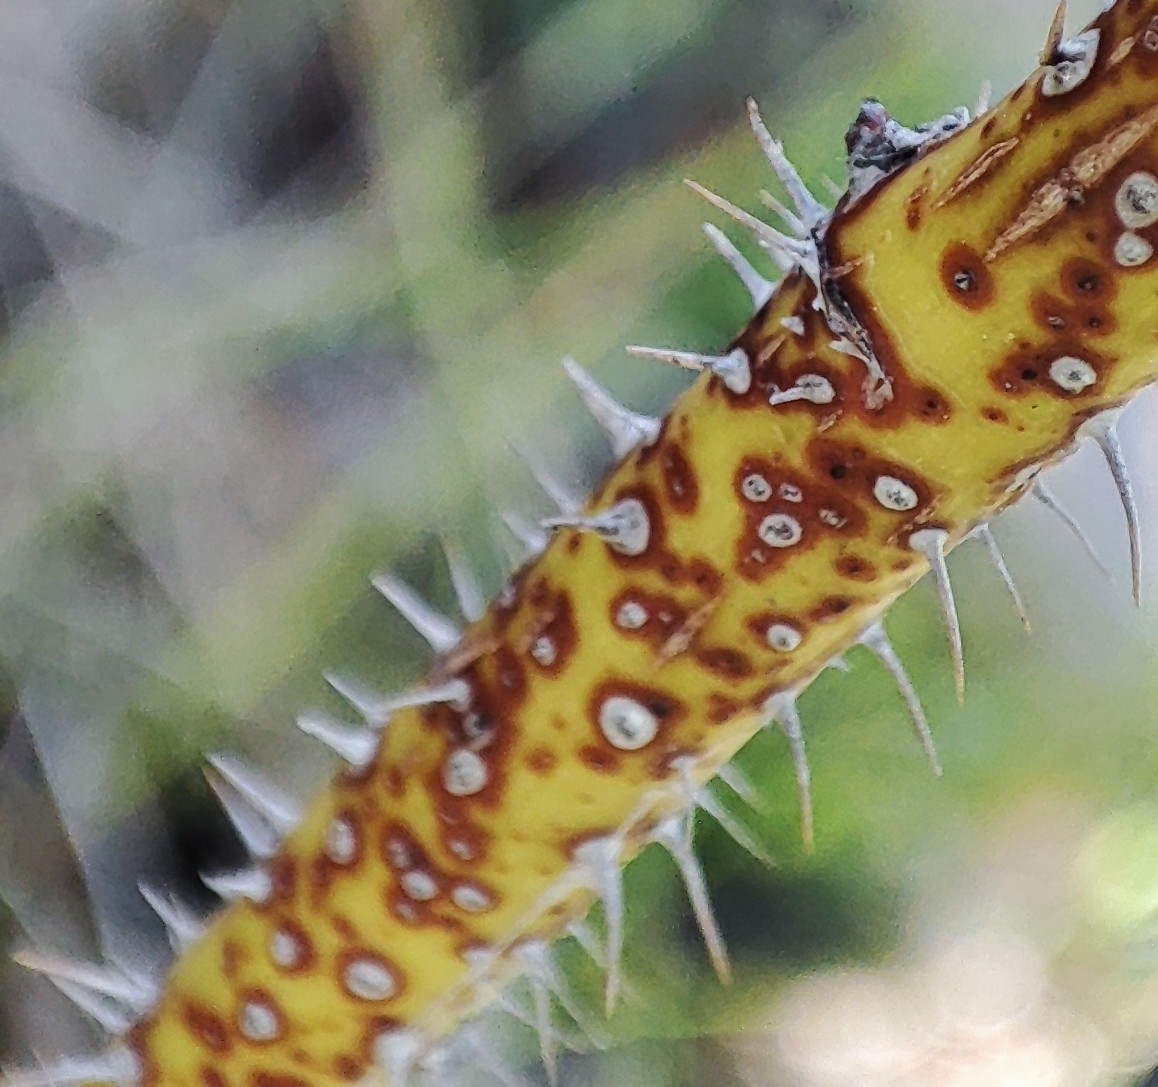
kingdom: Plantae
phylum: Tracheophyta
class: Magnoliopsida
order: Rosales
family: Rosaceae
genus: Rosa
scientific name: Rosa majalis
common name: Cinnamon rose
